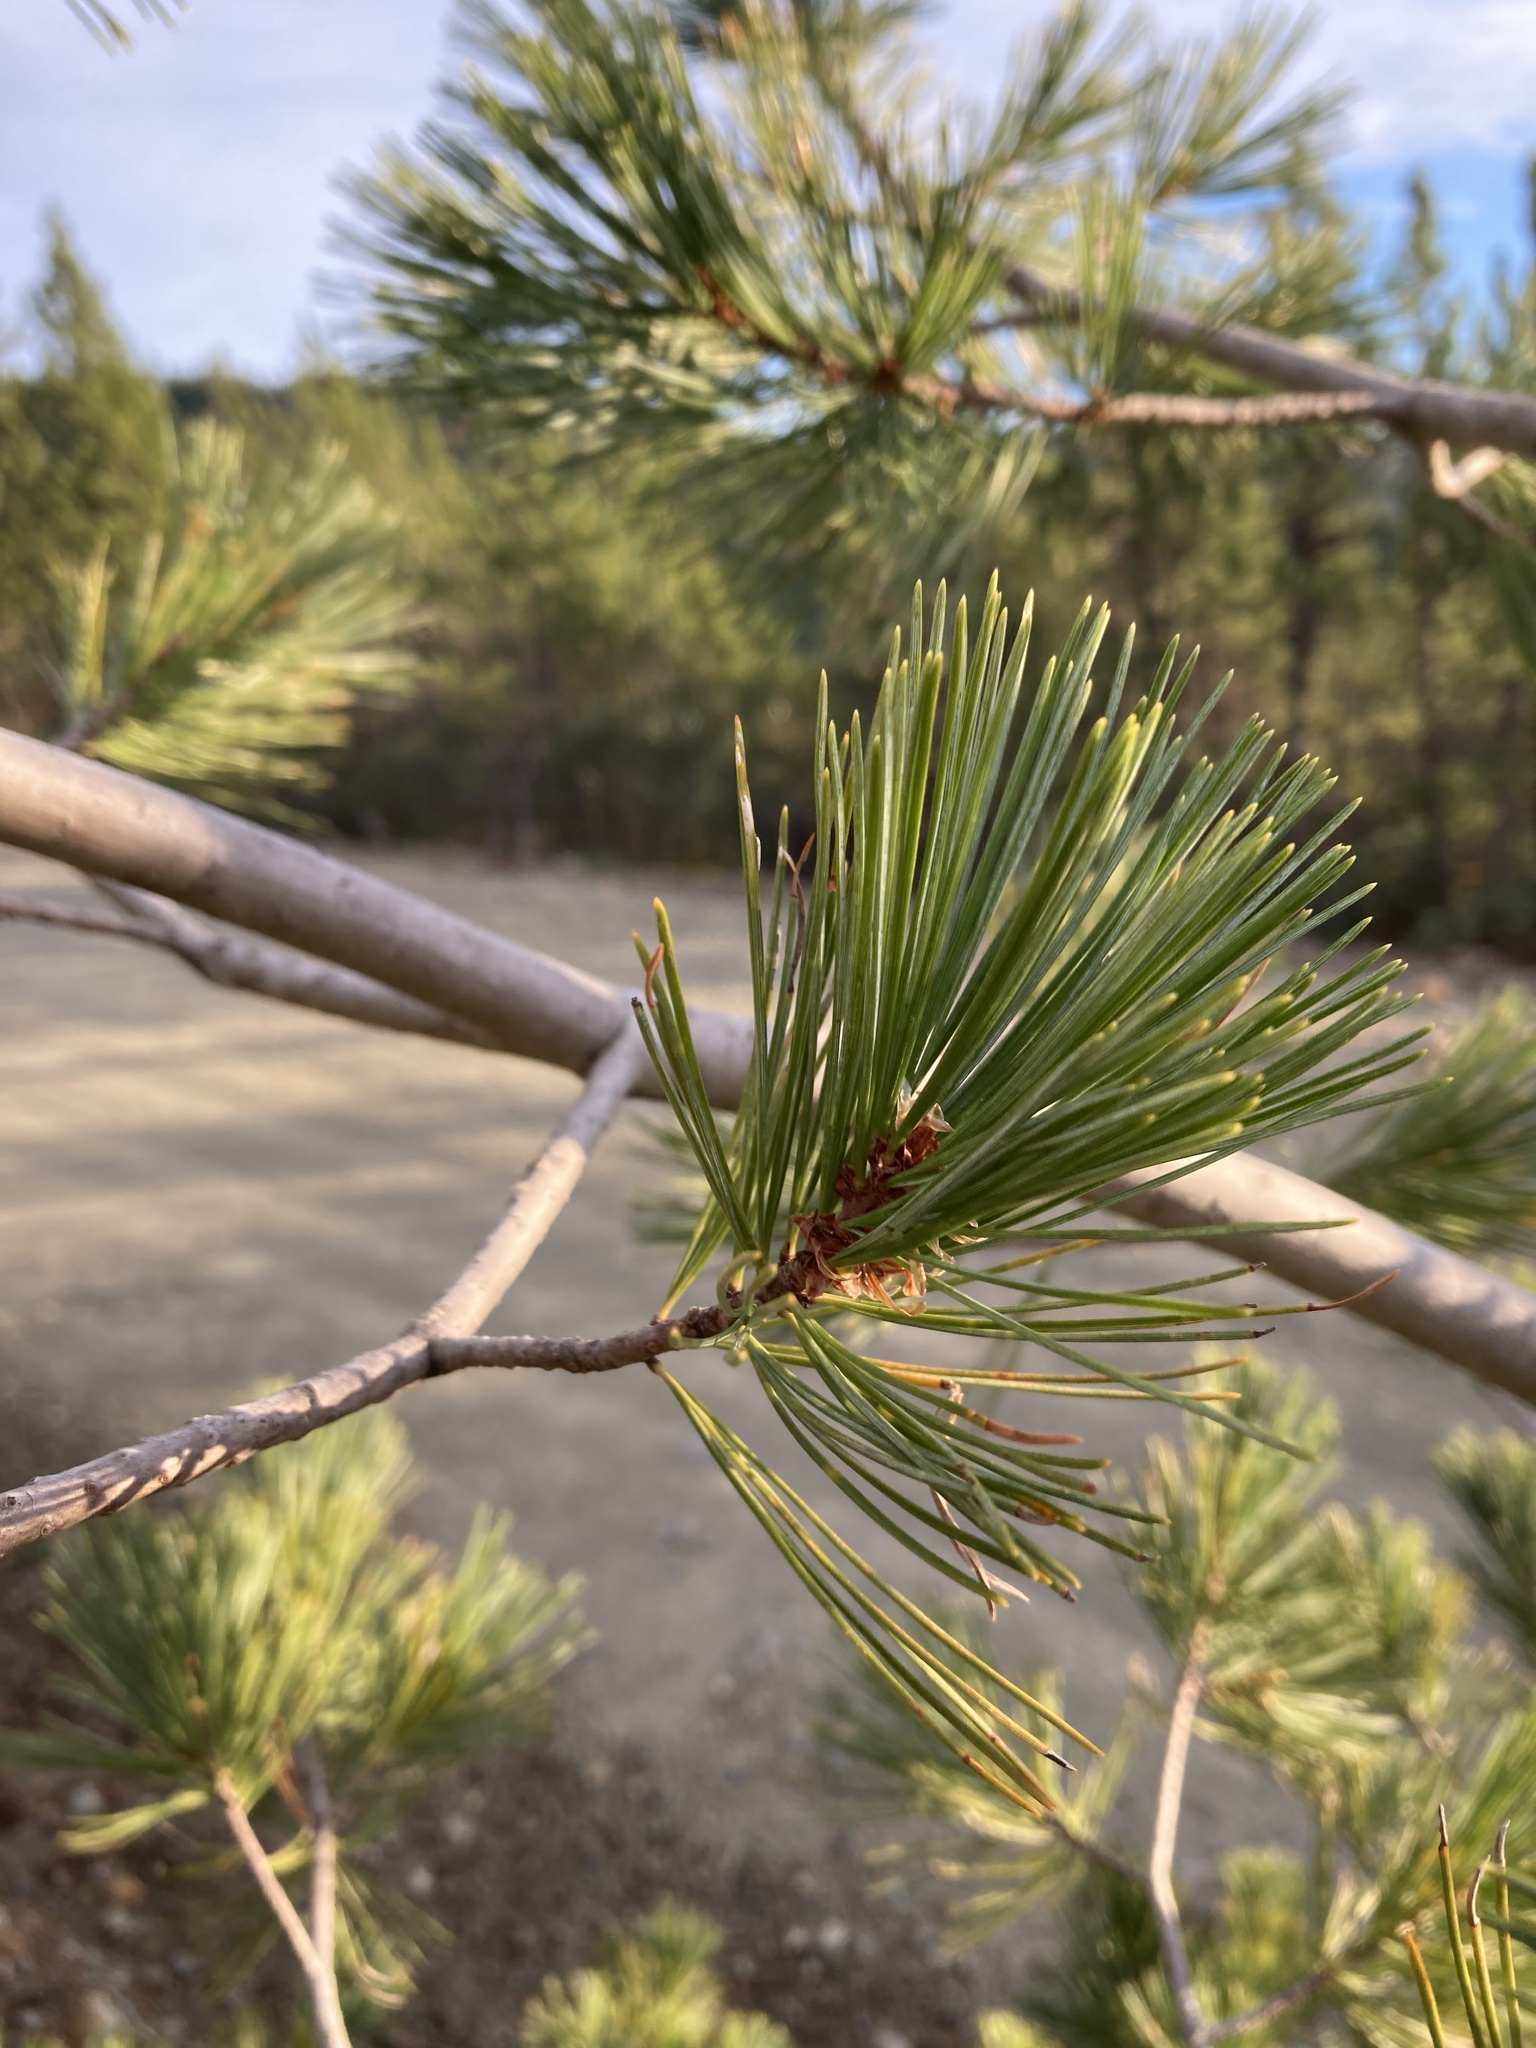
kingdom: Plantae
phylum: Tracheophyta
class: Pinopsida
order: Pinales
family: Pinaceae
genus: Pinus
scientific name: Pinus monticola
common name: Western white pine
